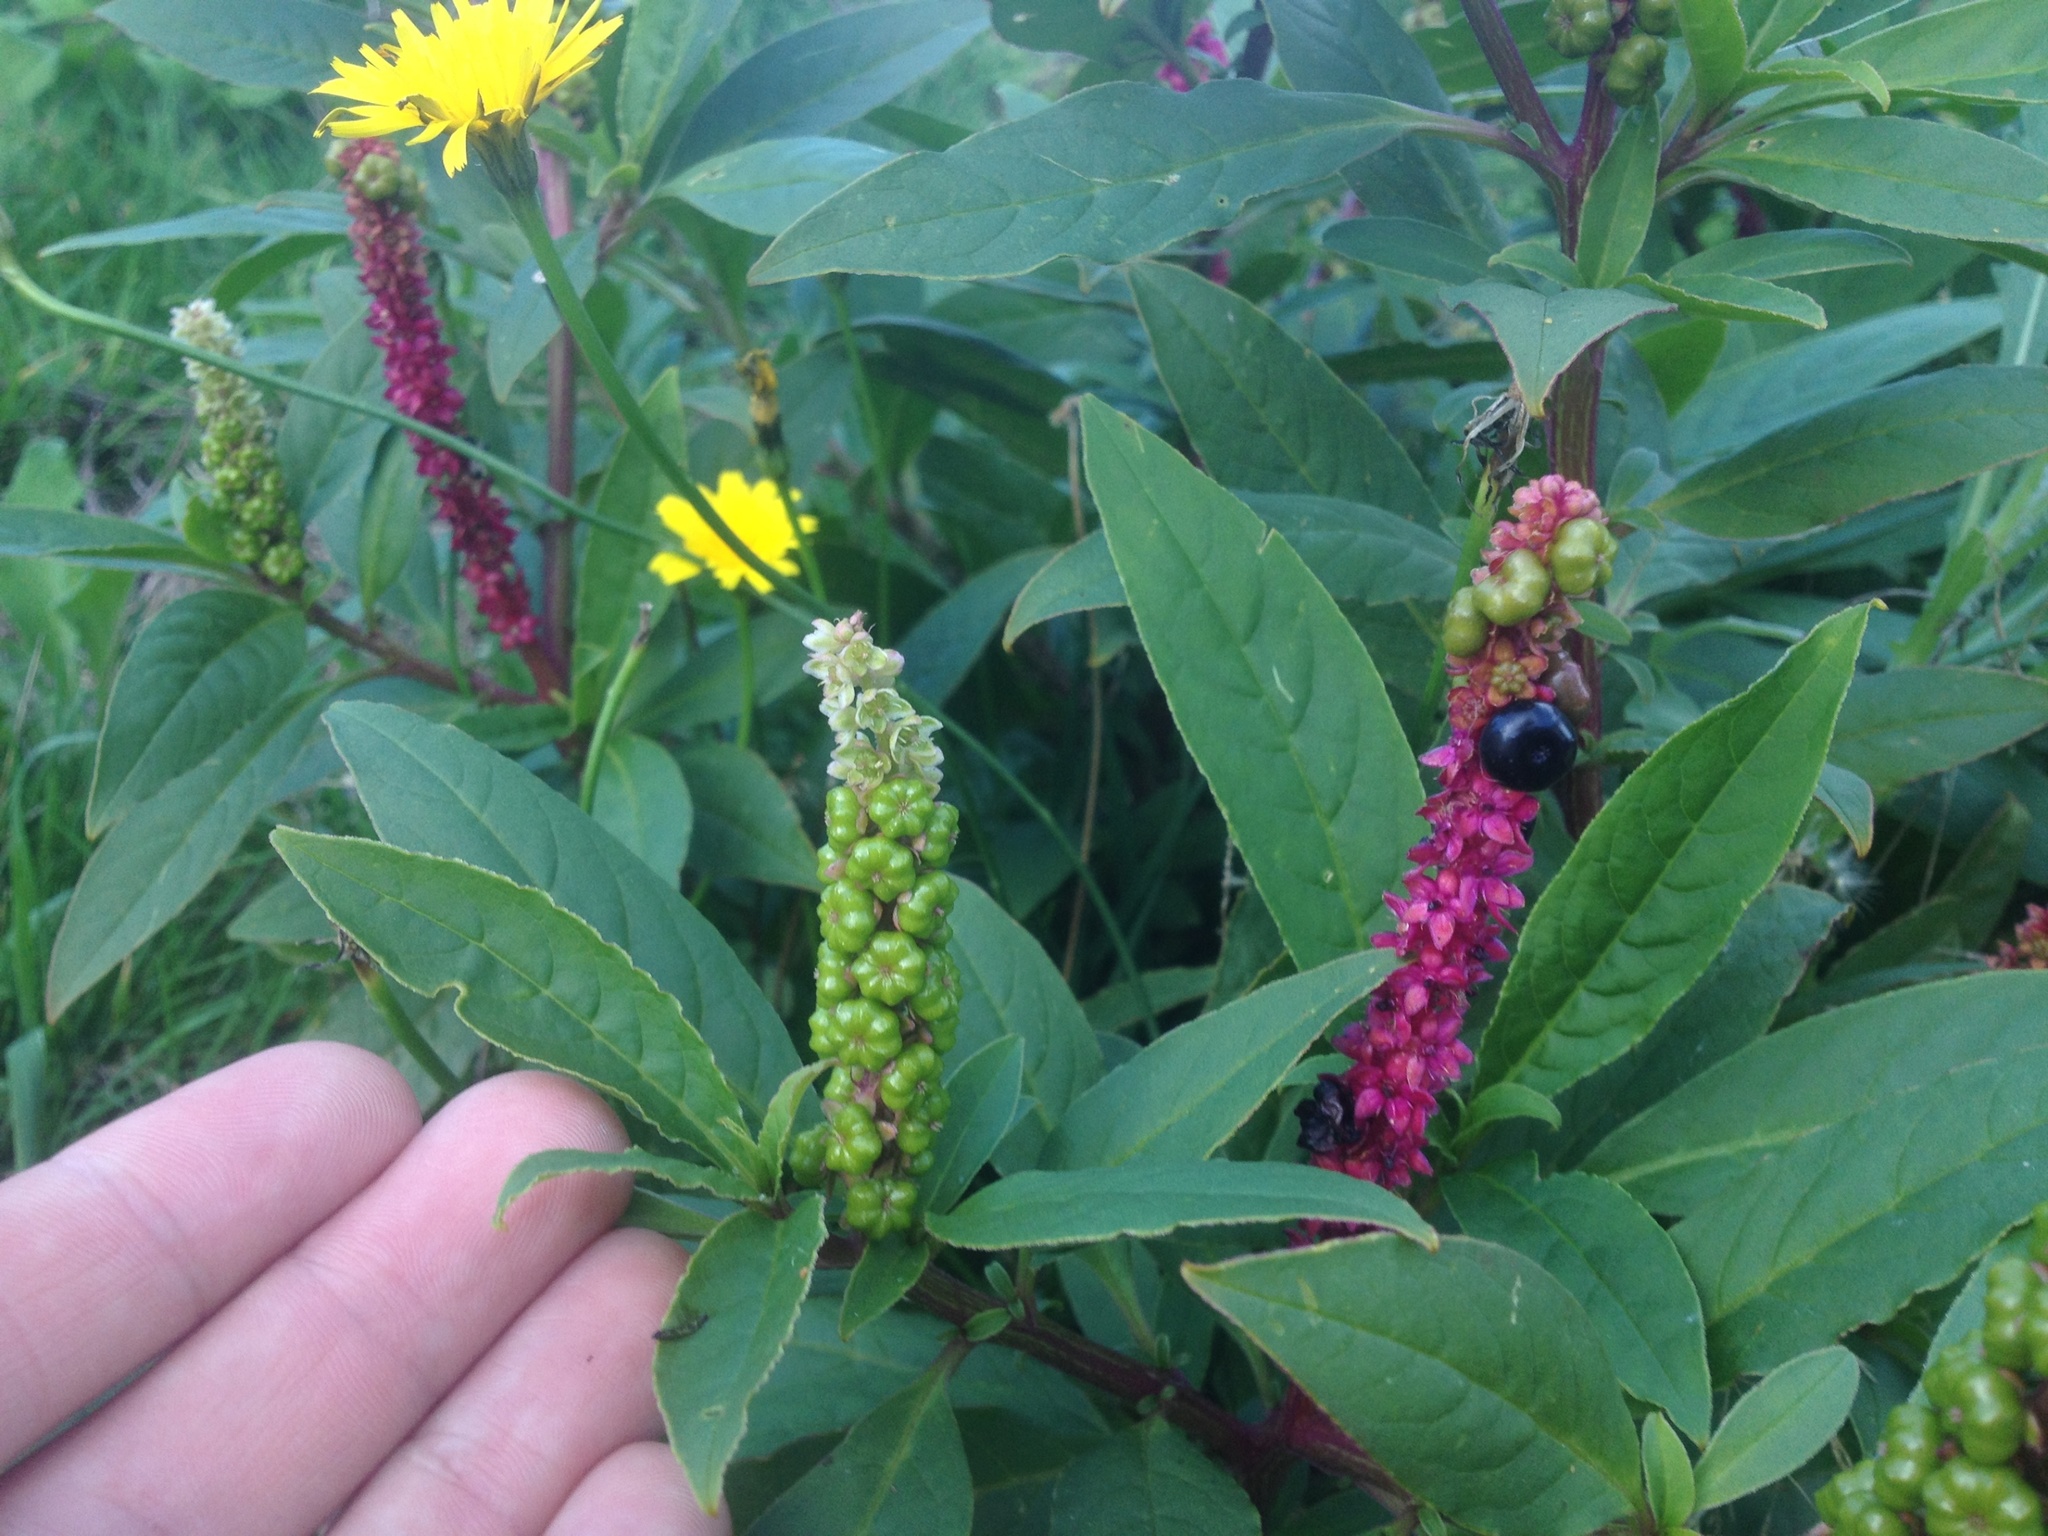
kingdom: Plantae
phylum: Tracheophyta
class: Magnoliopsida
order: Caryophyllales
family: Phytolaccaceae
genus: Phytolacca
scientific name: Phytolacca icosandra
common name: Button pokeweed
